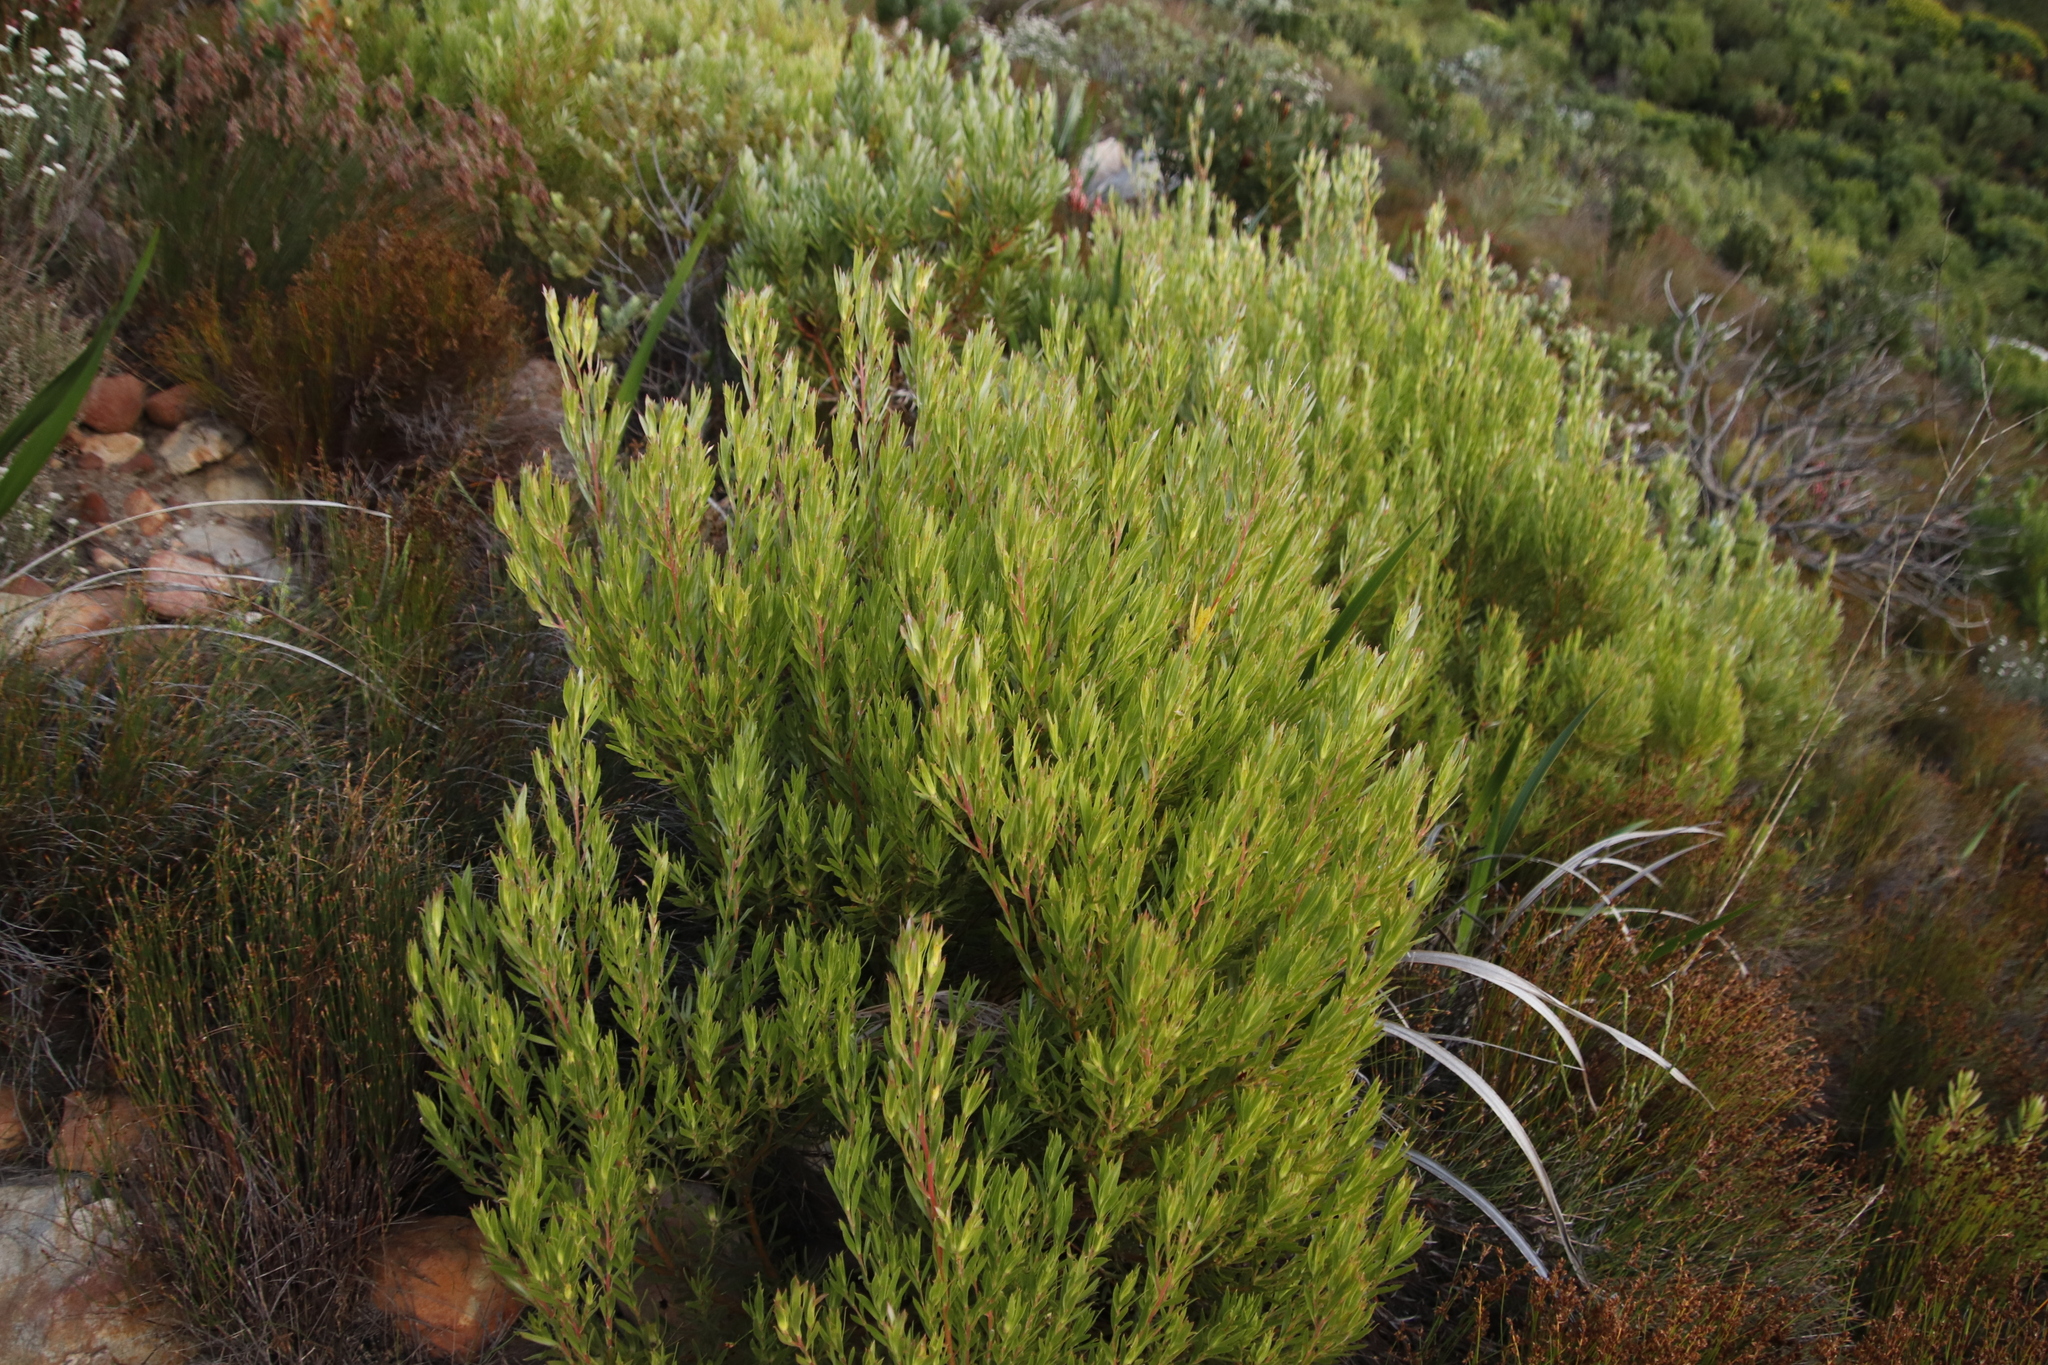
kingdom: Plantae
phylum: Tracheophyta
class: Magnoliopsida
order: Proteales
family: Proteaceae
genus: Leucadendron
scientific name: Leucadendron xanthoconus
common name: Sickle-leaf conebush
